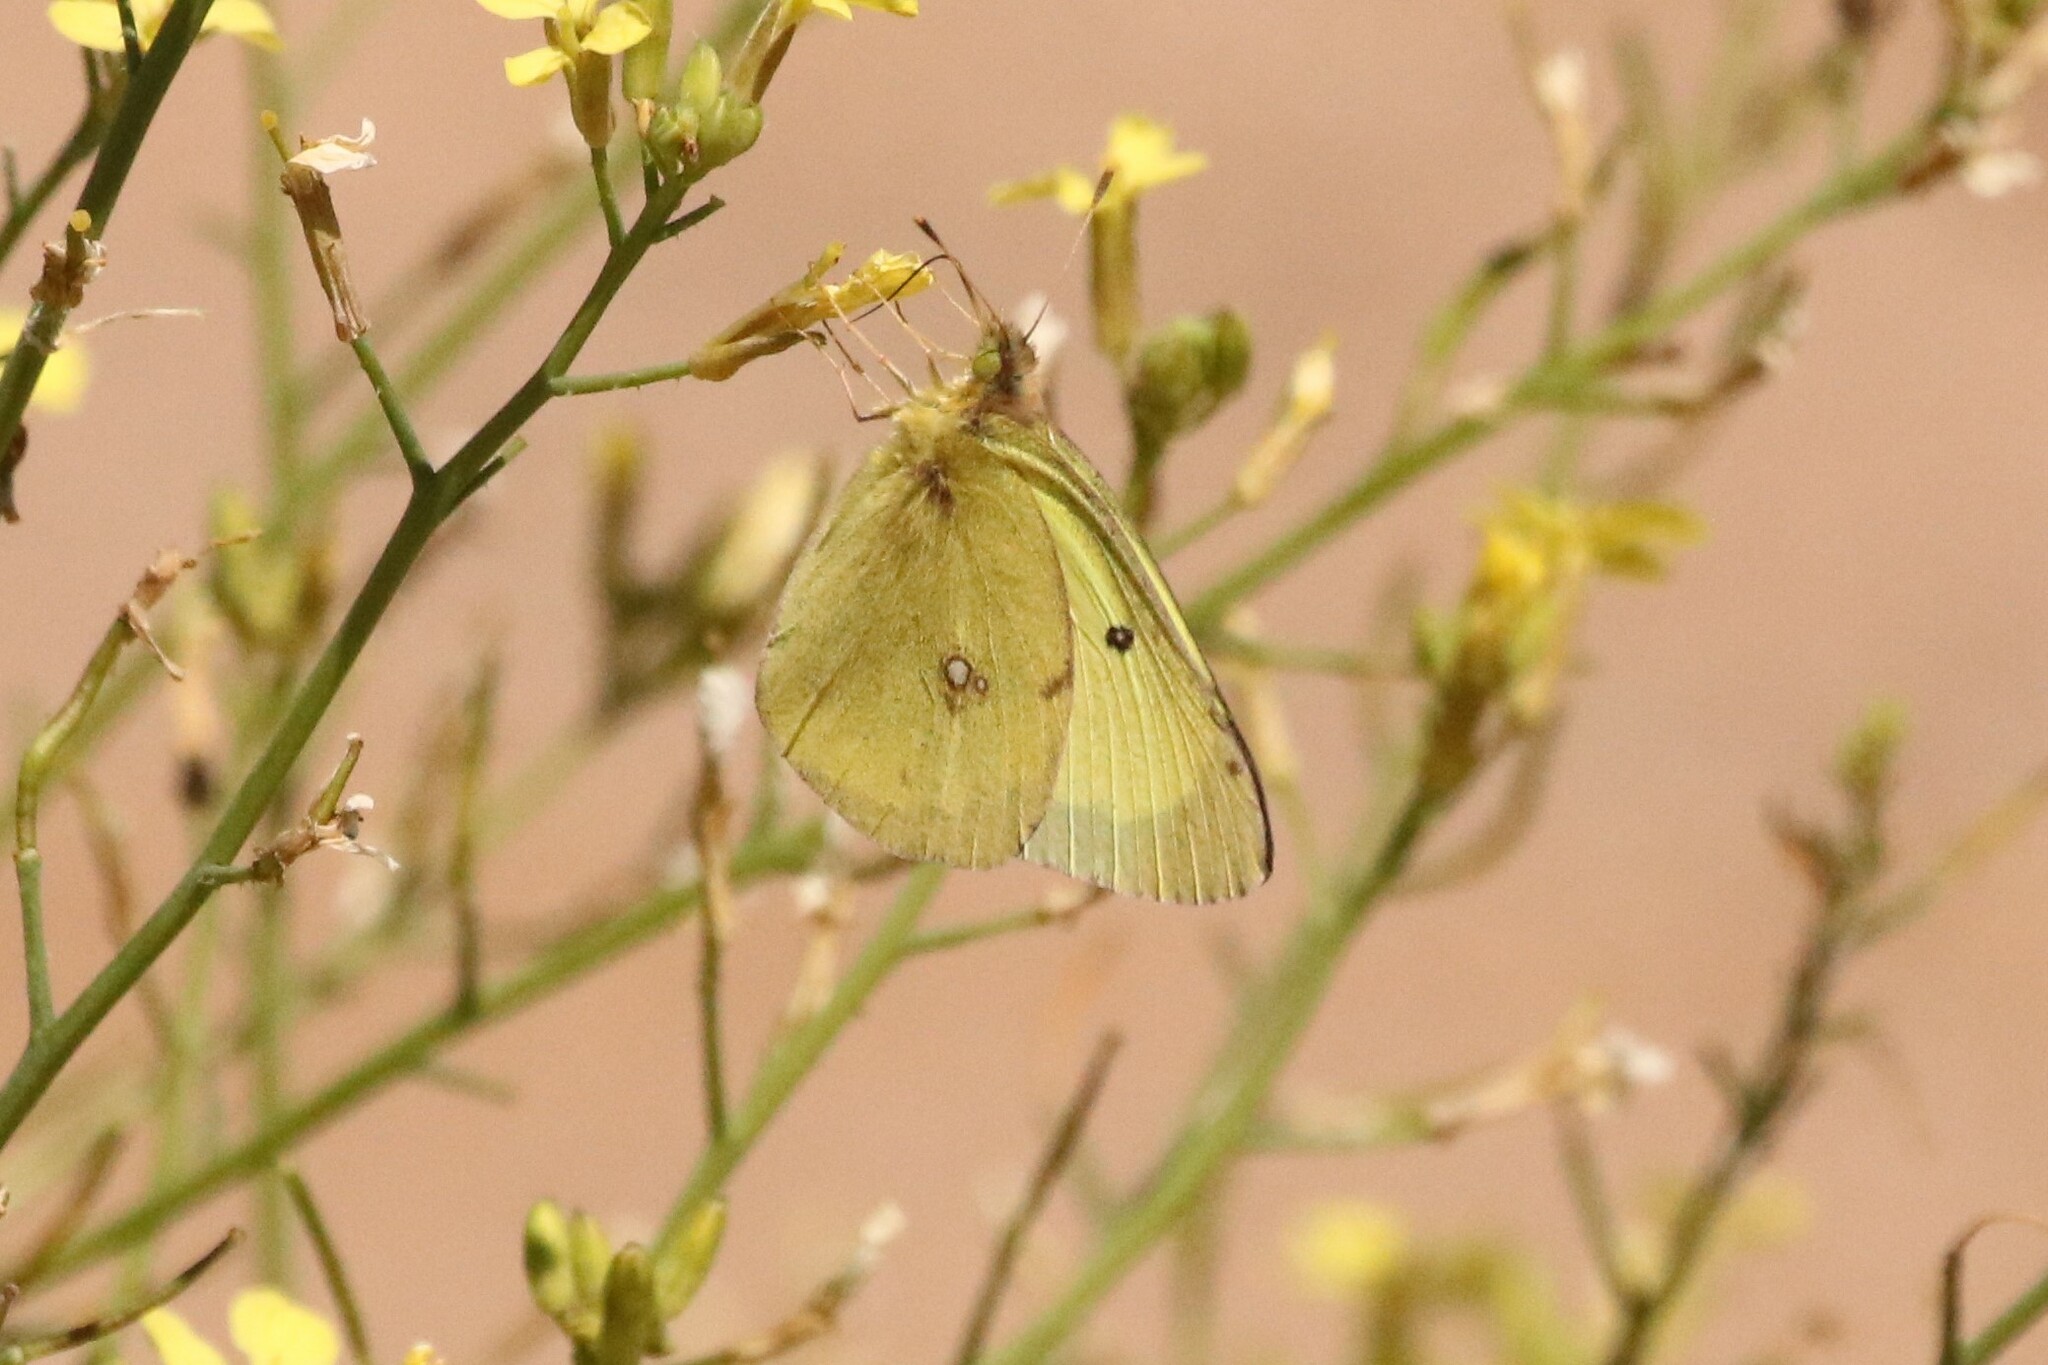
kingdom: Animalia
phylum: Arthropoda
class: Insecta
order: Lepidoptera
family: Pieridae
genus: Colias
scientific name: Colias philodice
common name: Clouded sulphur
